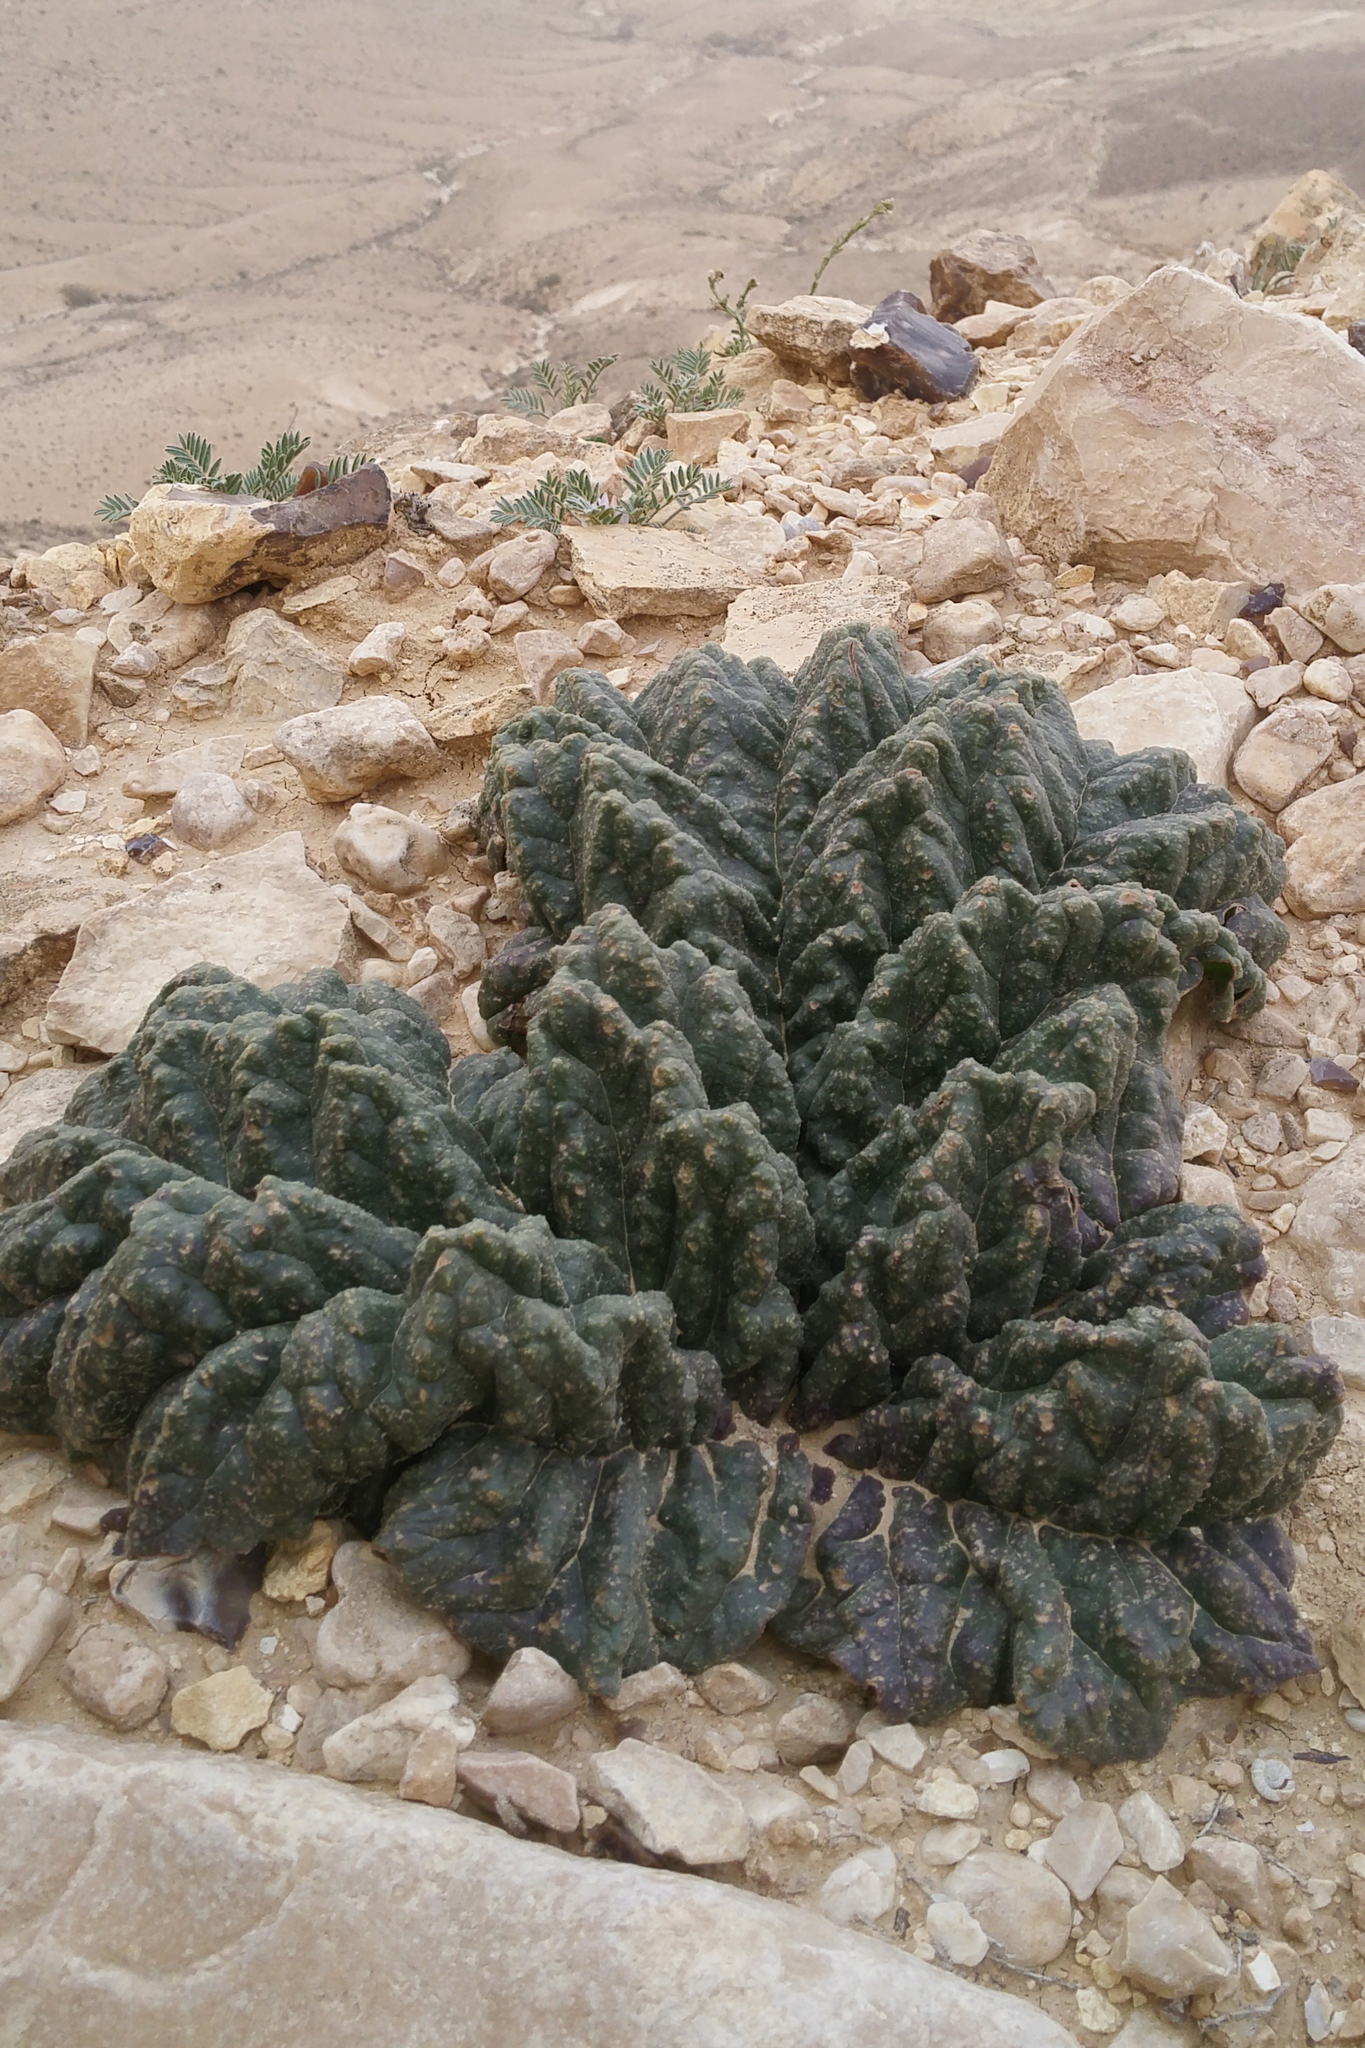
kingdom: Plantae
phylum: Tracheophyta
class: Magnoliopsida
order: Caryophyllales
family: Polygonaceae
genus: Rheum
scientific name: Rheum palaestinum
